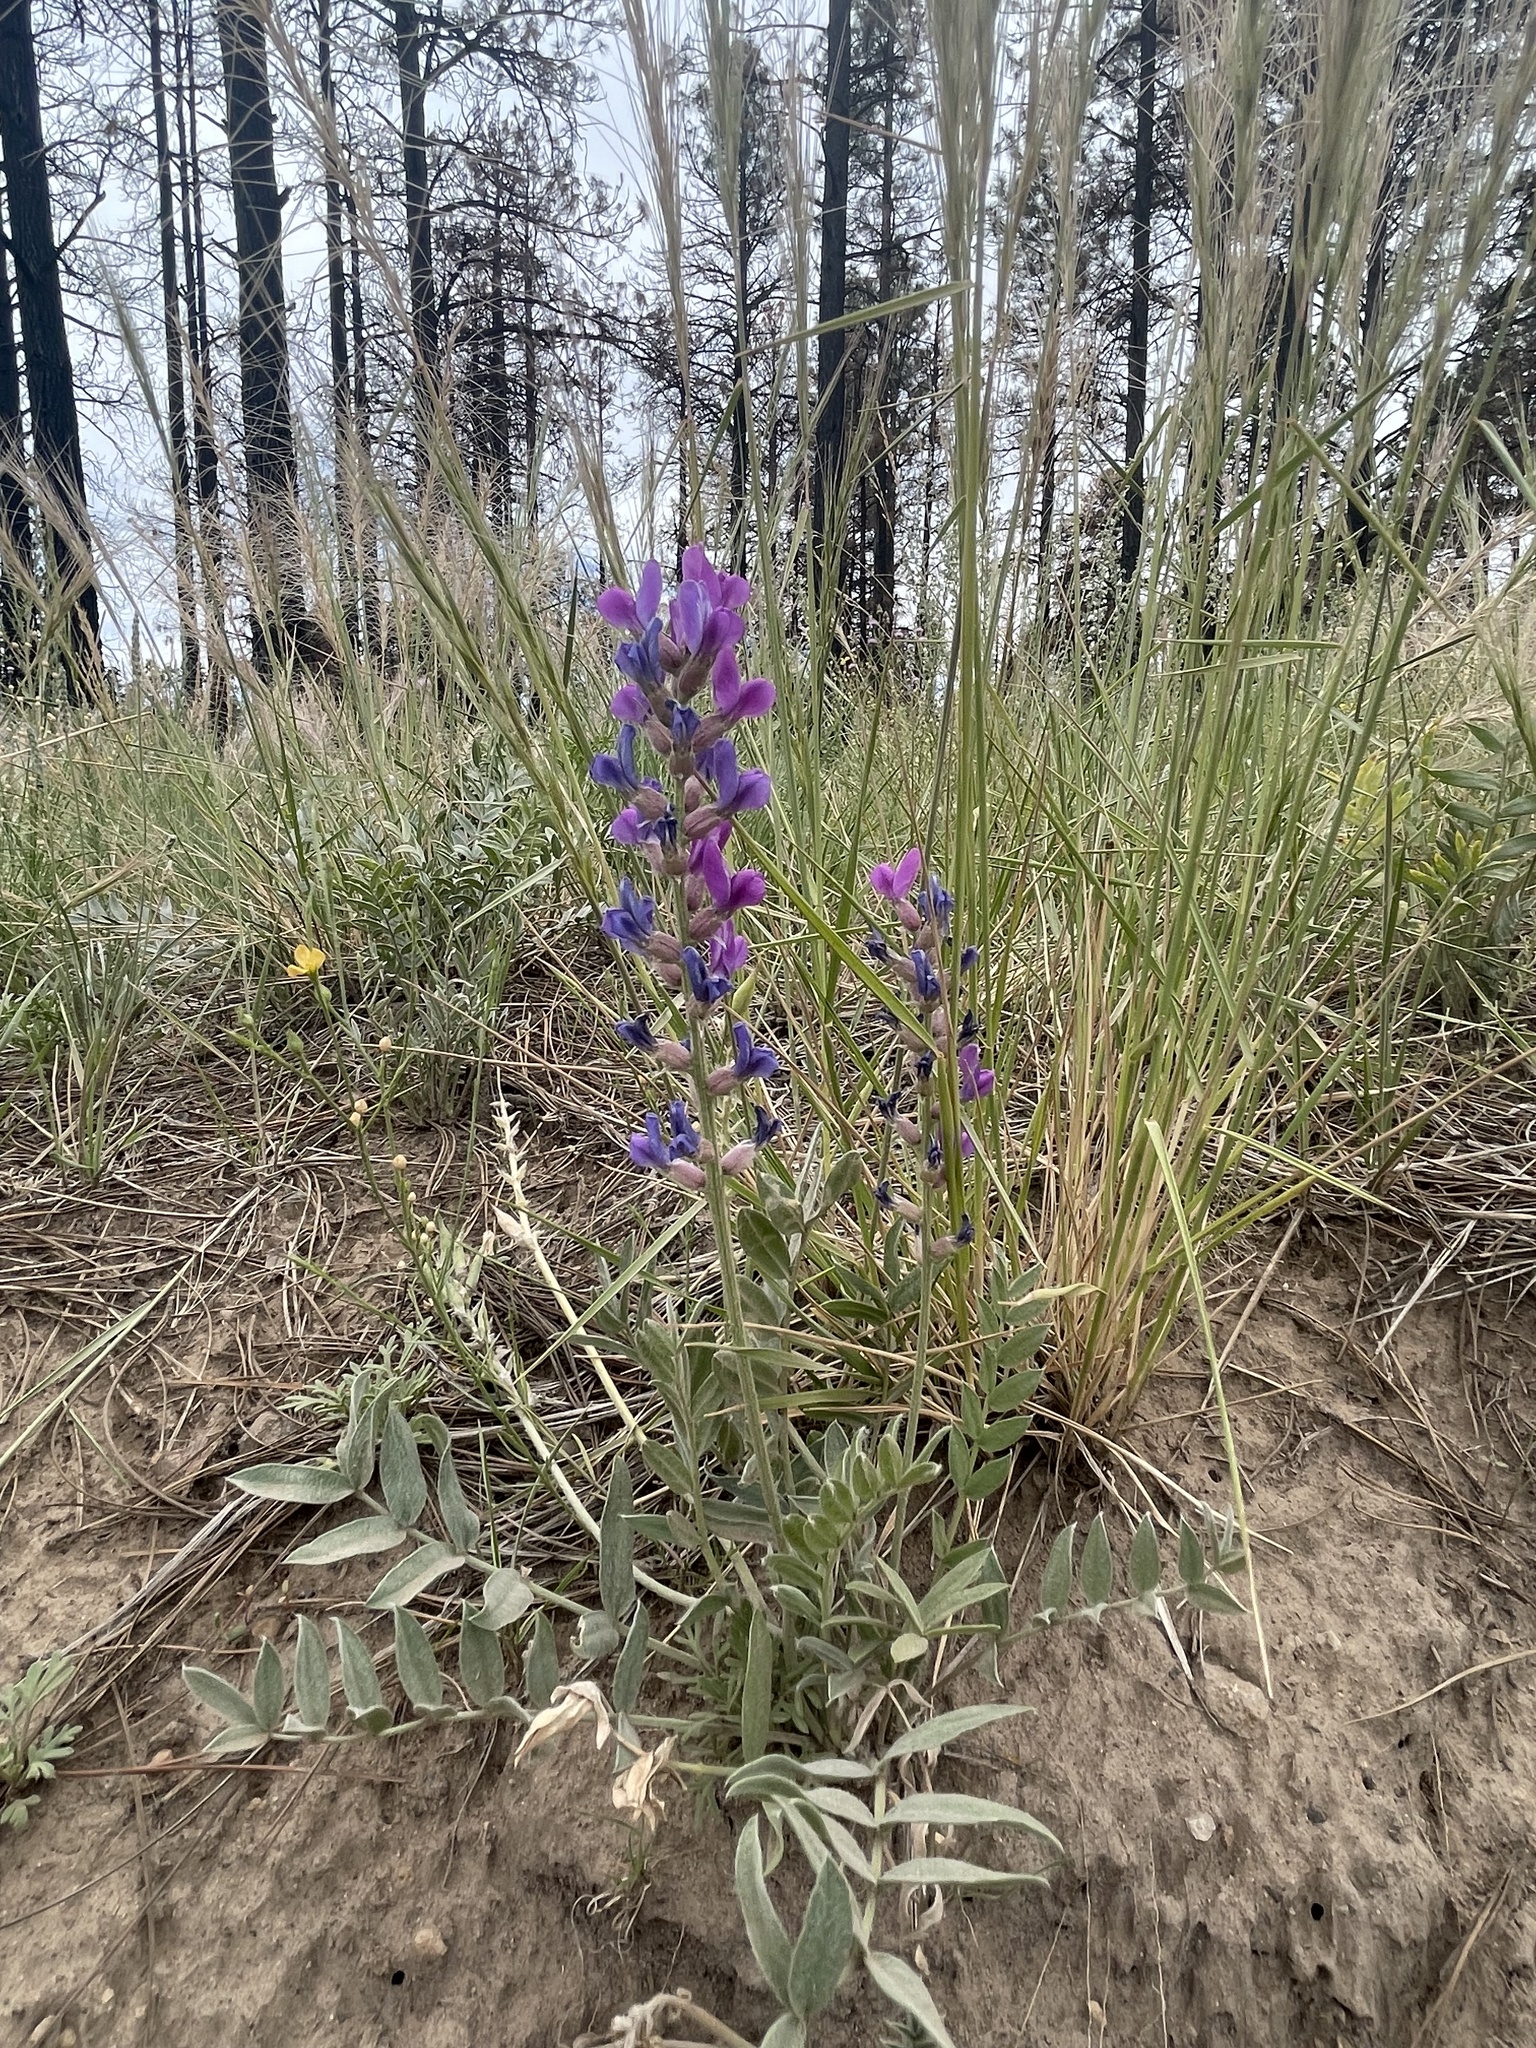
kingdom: Plantae
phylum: Tracheophyta
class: Magnoliopsida
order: Fabales
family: Fabaceae
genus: Oxytropis
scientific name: Oxytropis lambertii
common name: Purple locoweed
